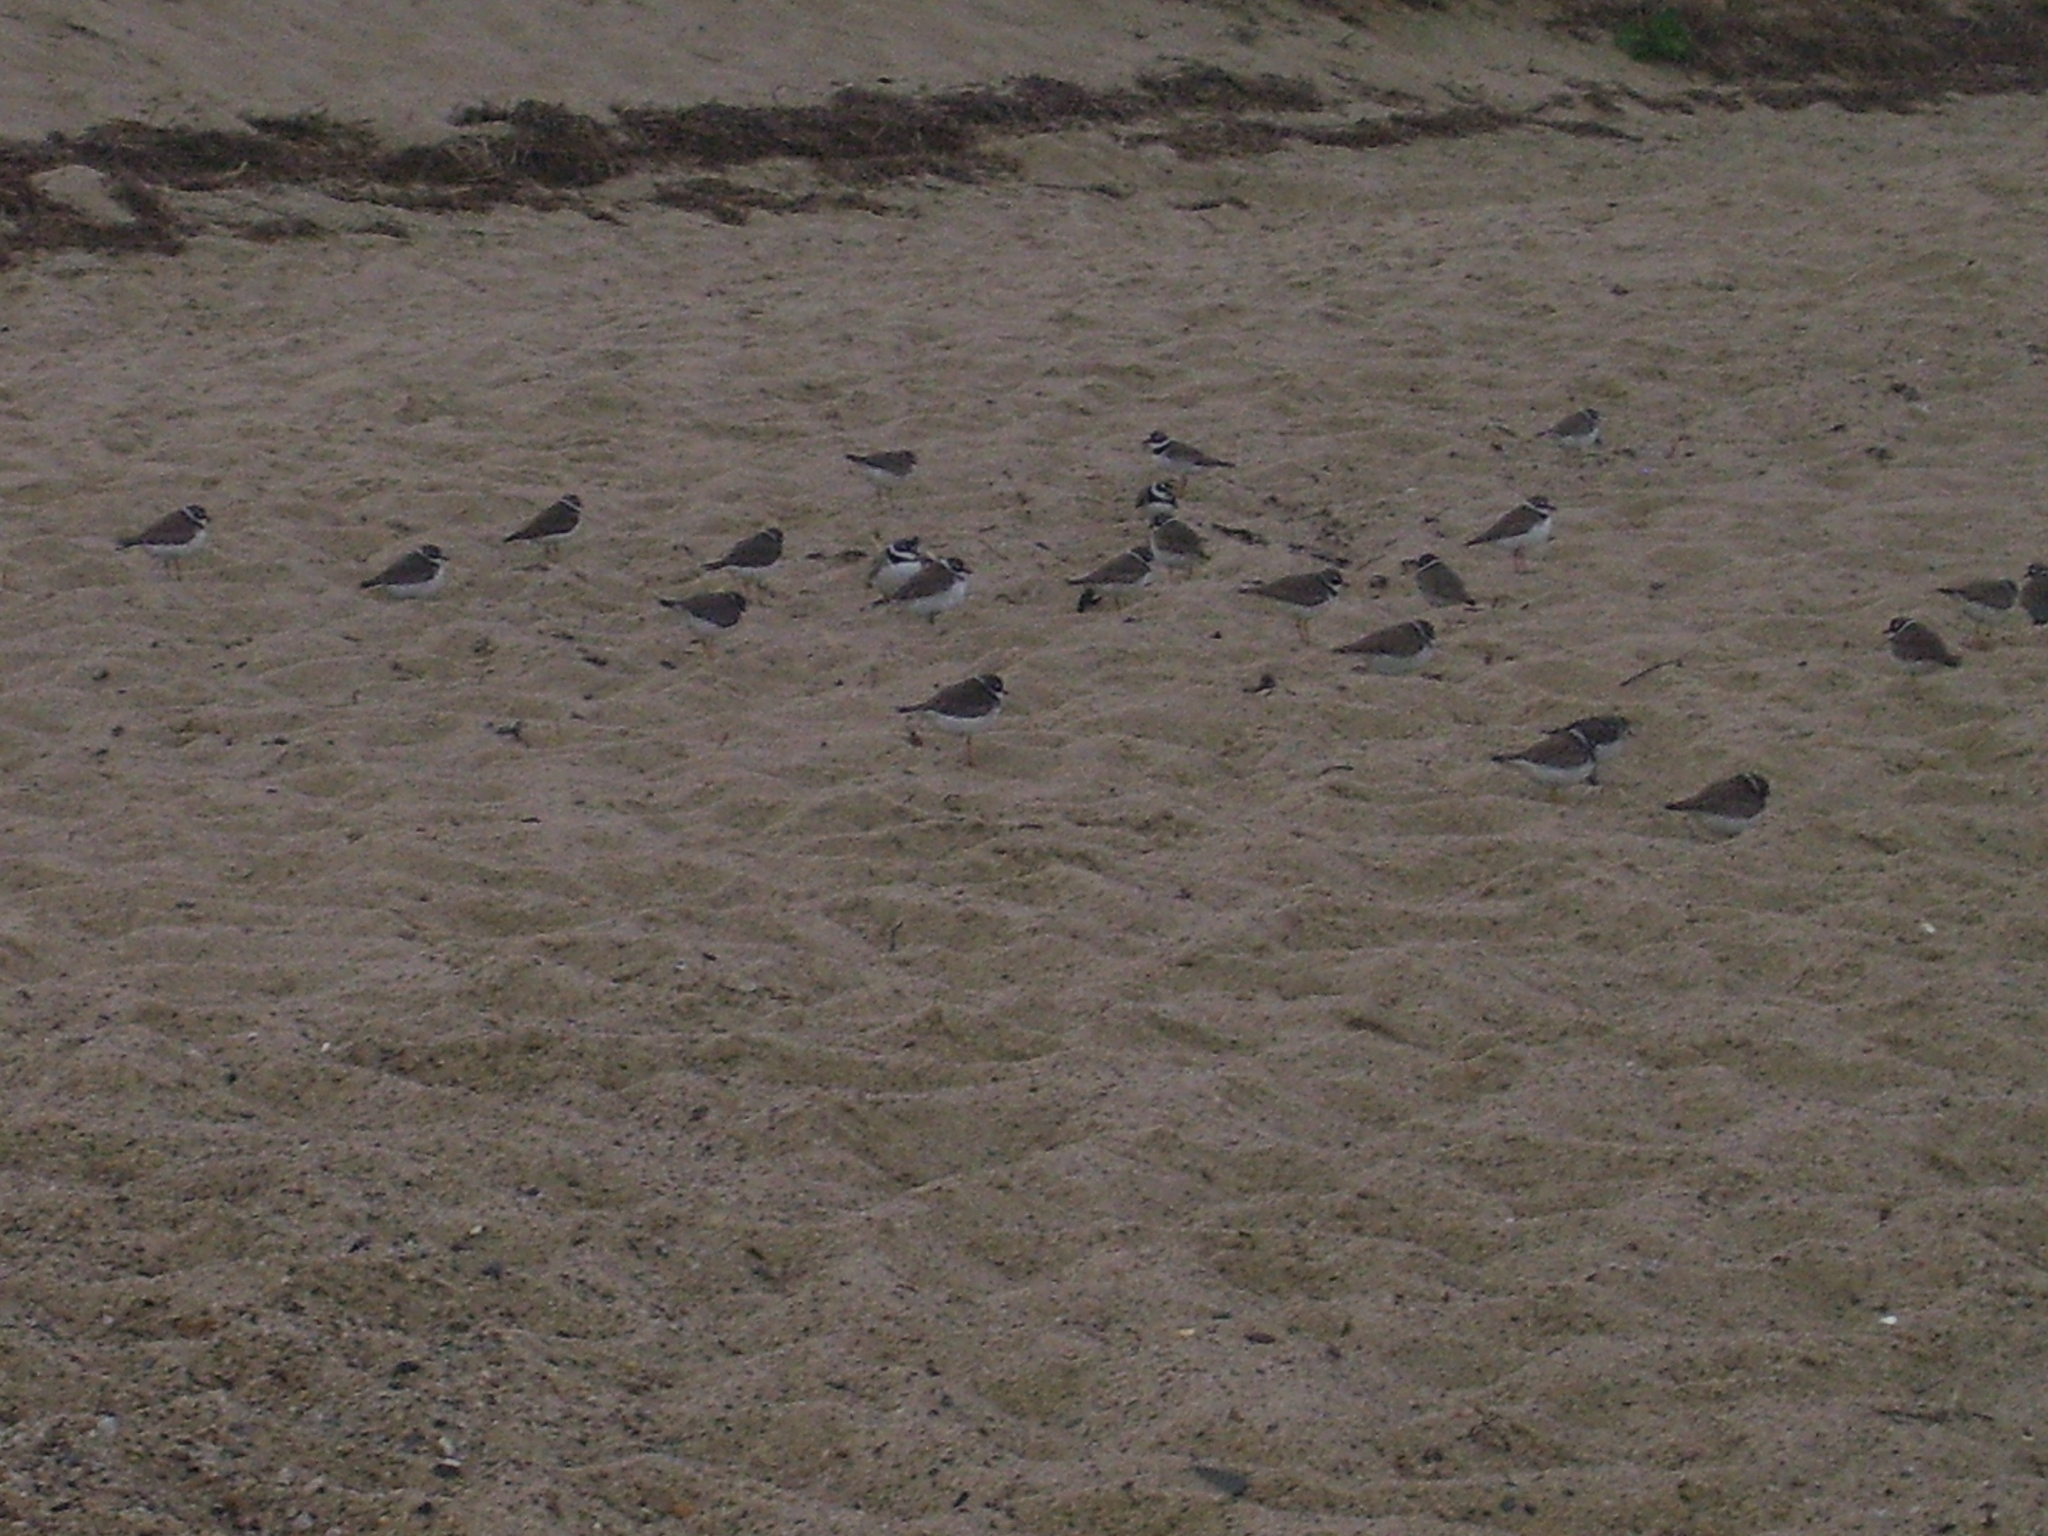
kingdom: Animalia
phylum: Chordata
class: Aves
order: Charadriiformes
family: Charadriidae
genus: Charadrius
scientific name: Charadrius semipalmatus
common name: Semipalmated plover
